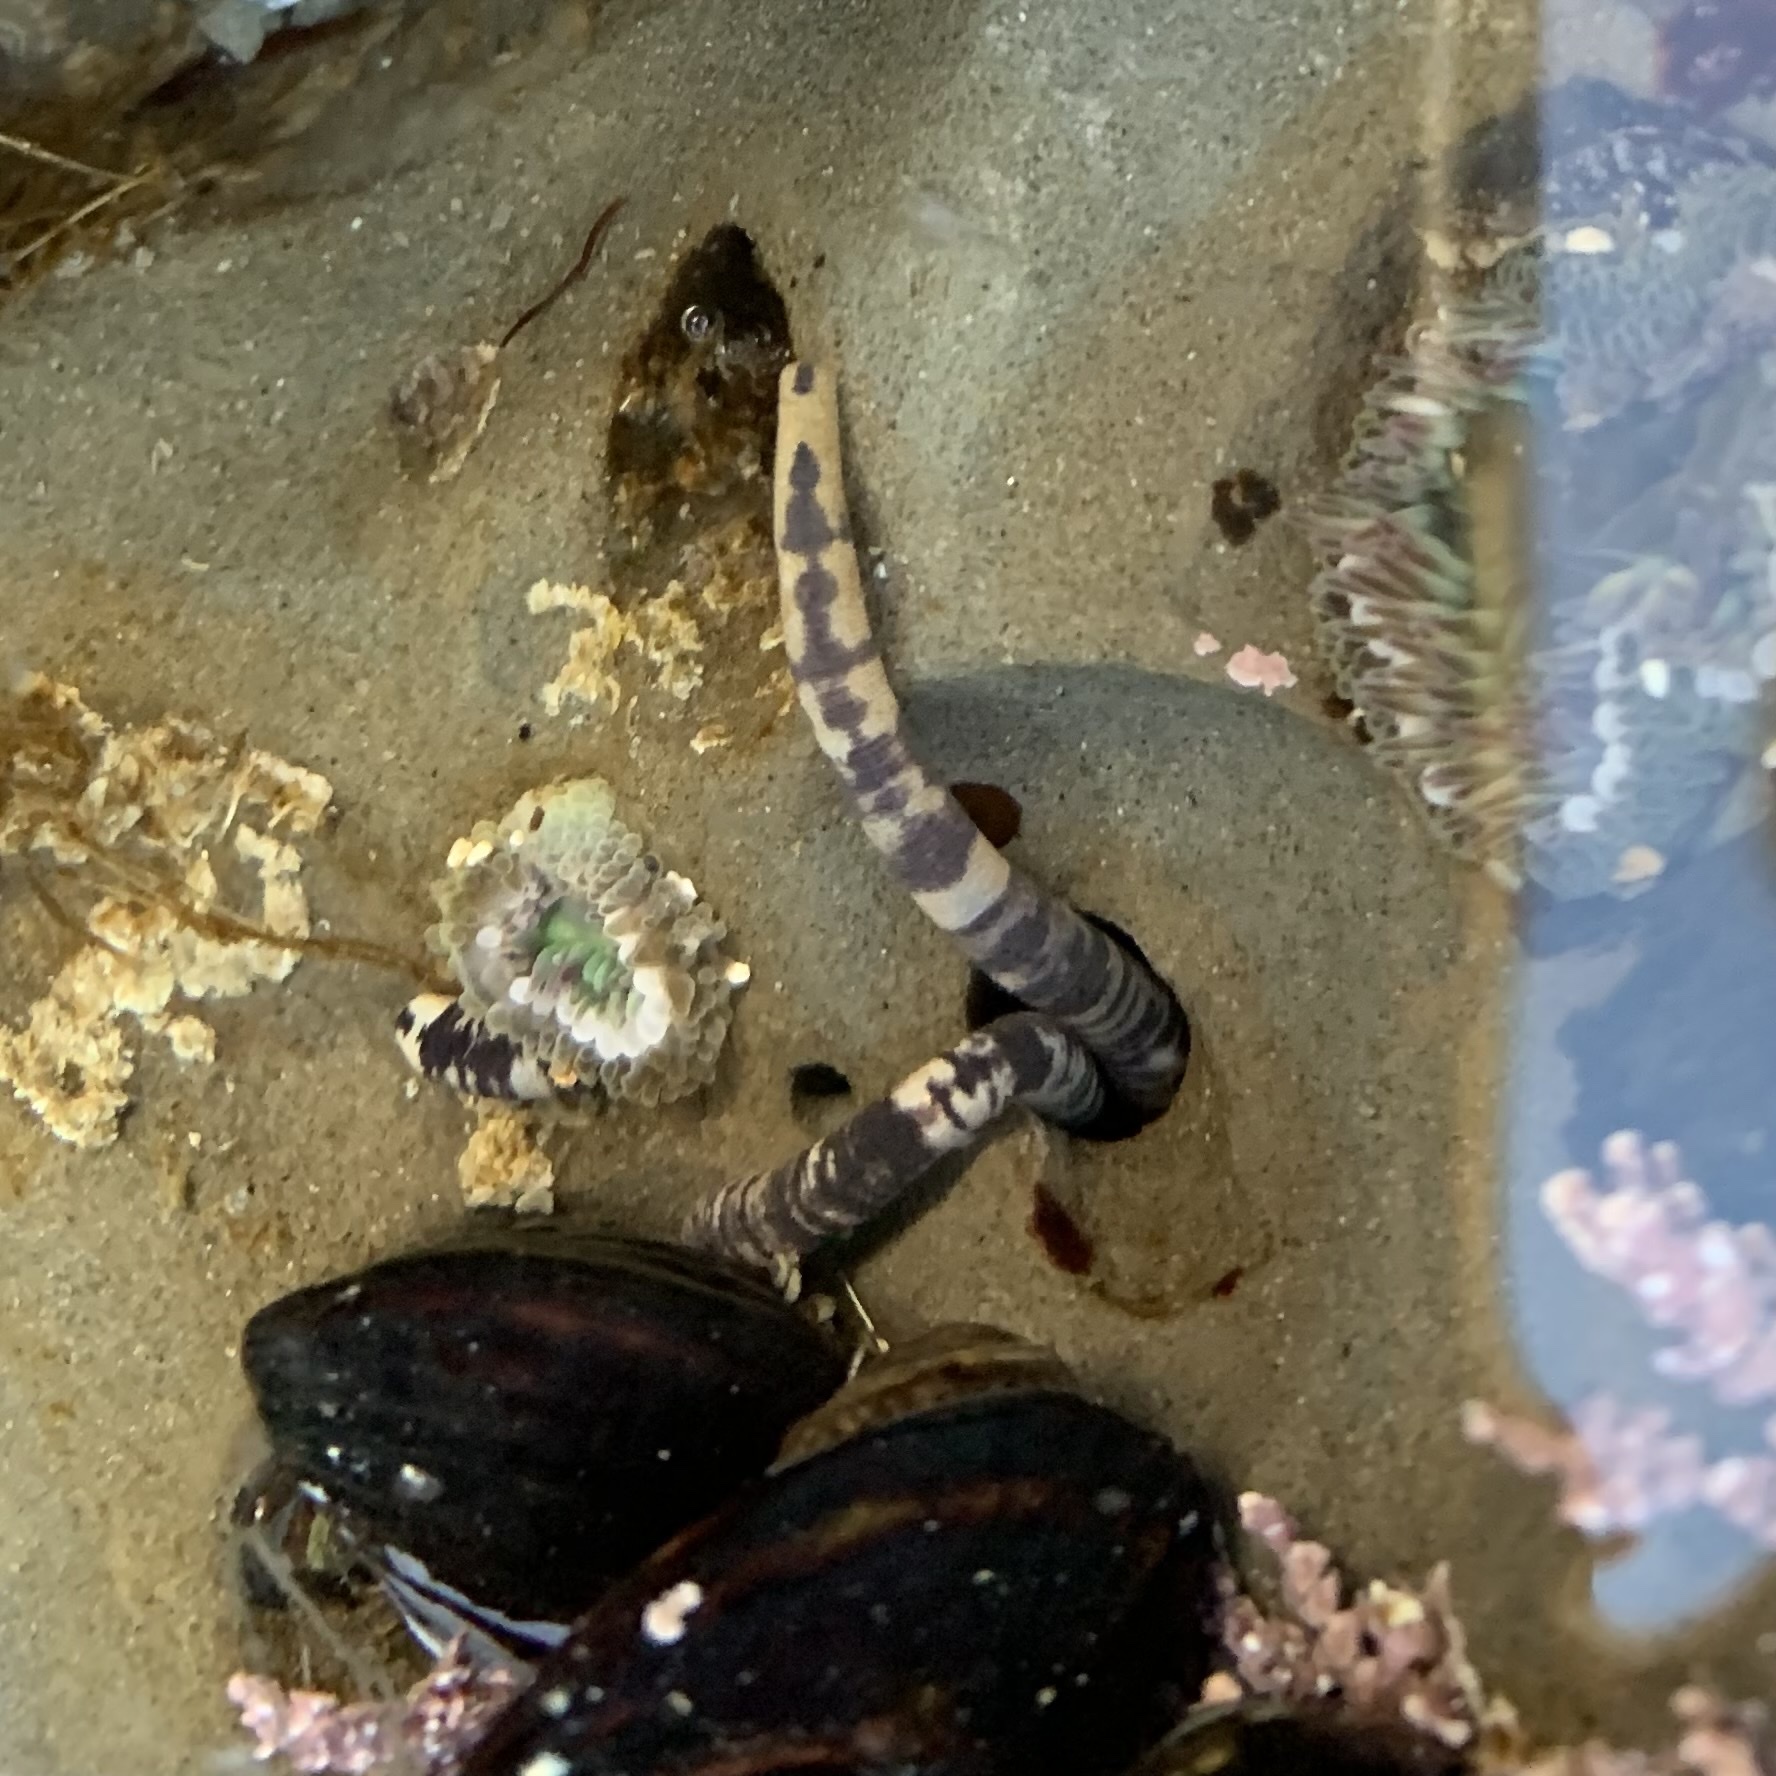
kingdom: Animalia
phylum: Sipuncula
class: Phascolosomatidea
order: Phascolosomatiformes
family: Phascolosomatidae
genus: Phascolosoma
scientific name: Phascolosoma agassizii
